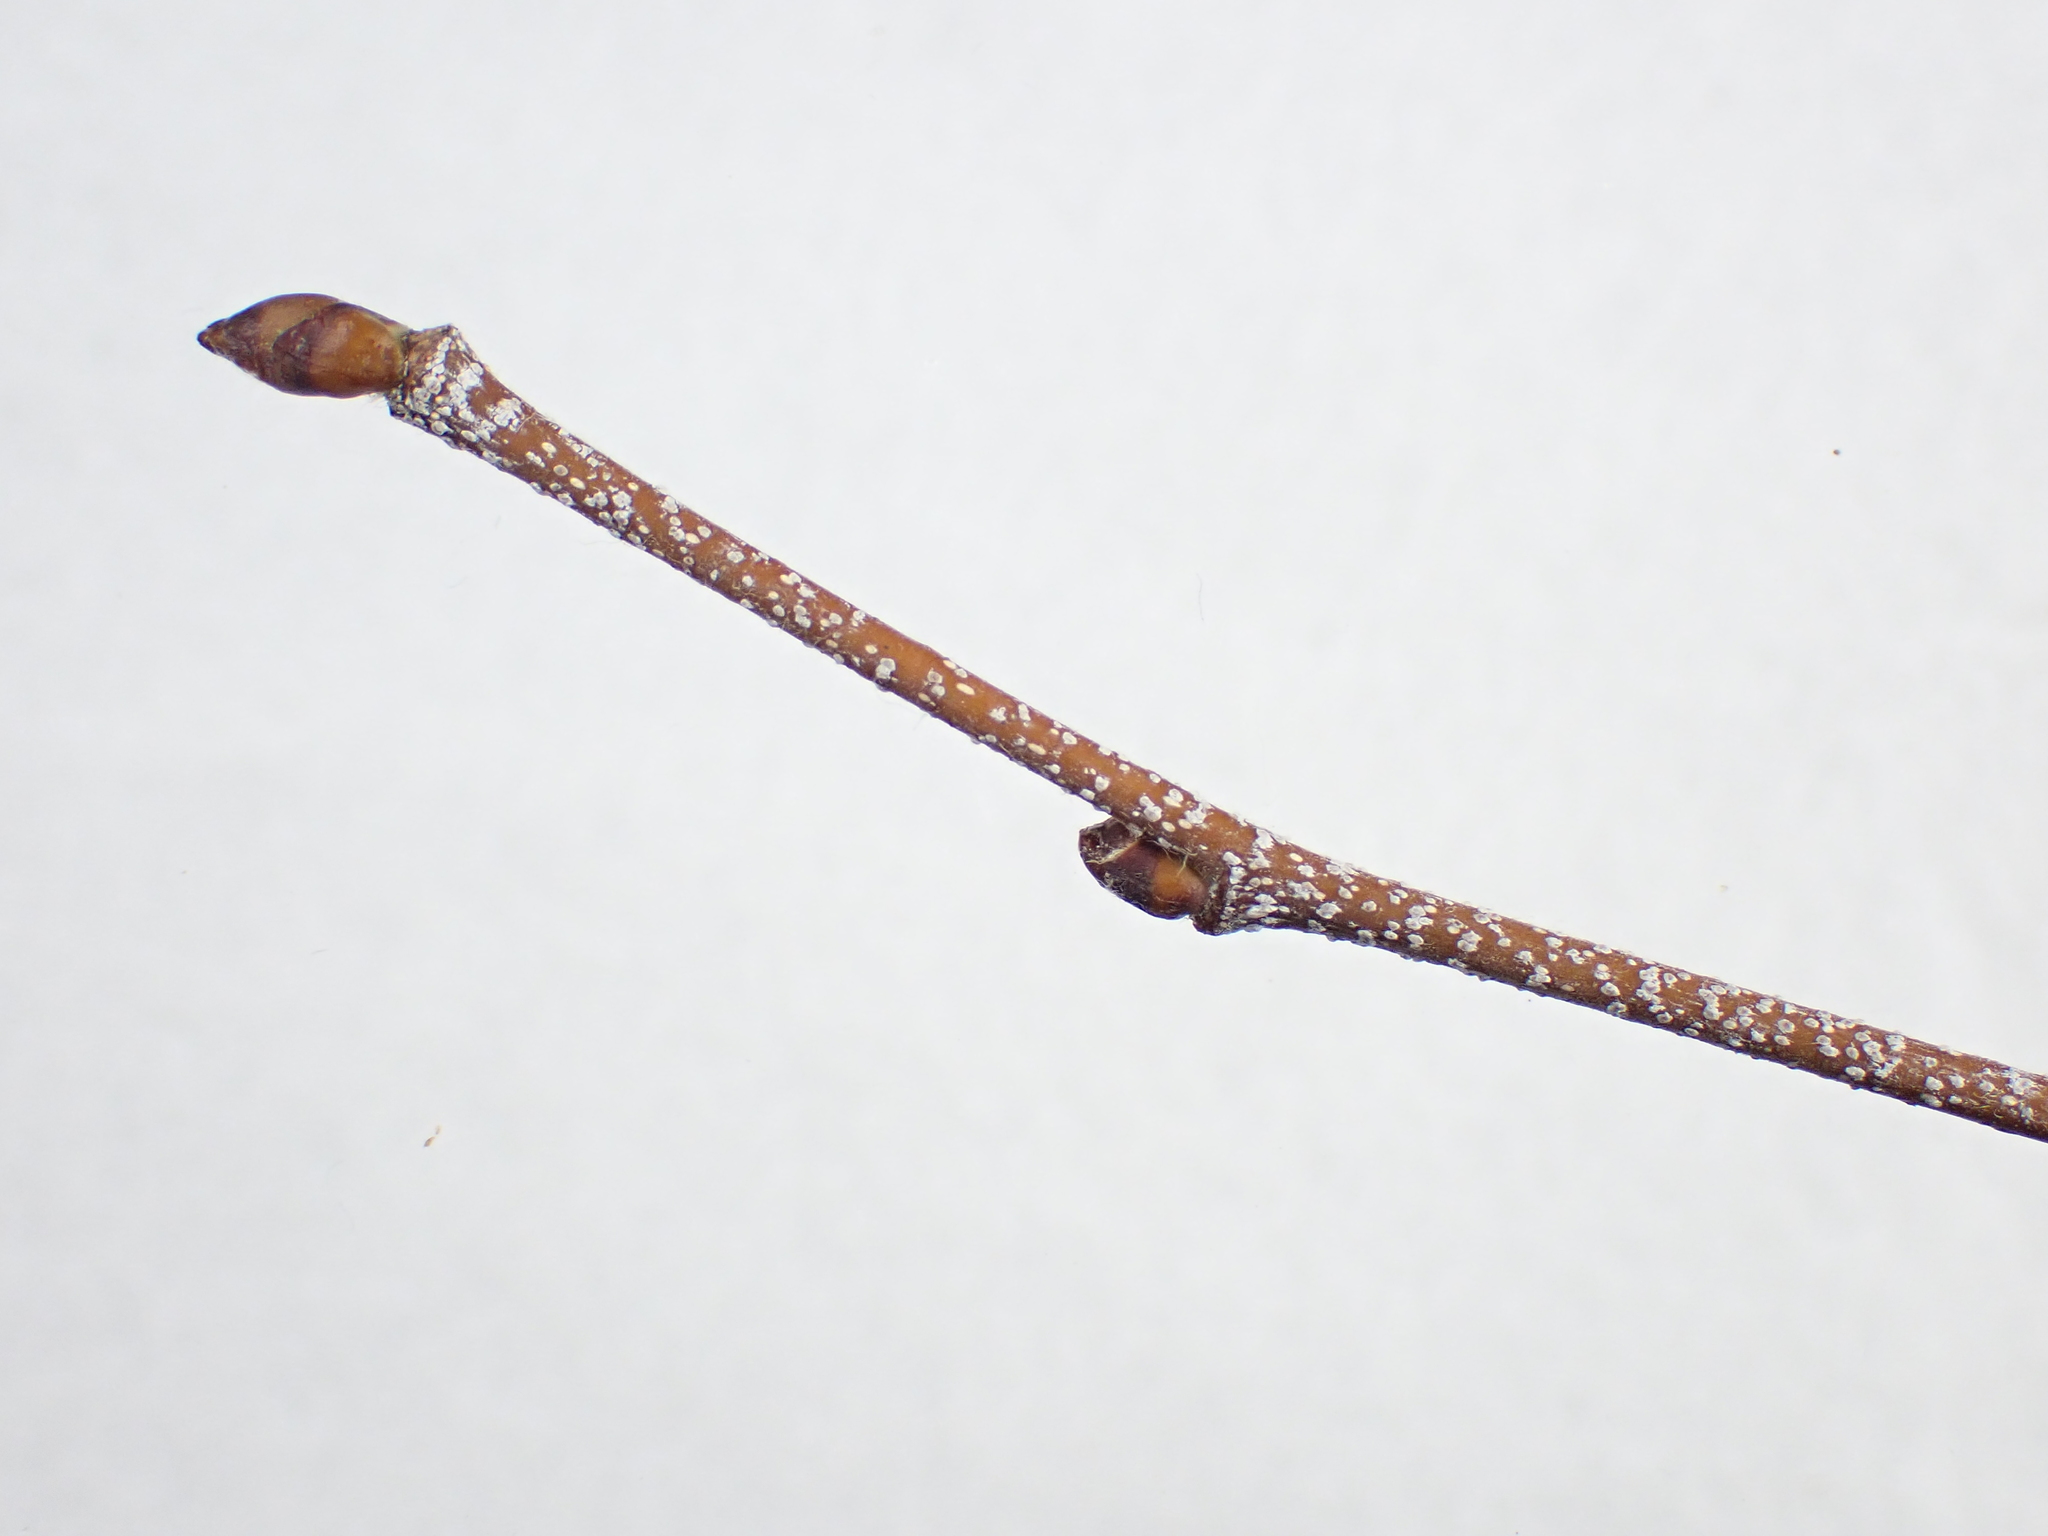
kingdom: Plantae
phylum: Tracheophyta
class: Magnoliopsida
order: Fagales
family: Betulaceae
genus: Betula
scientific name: Betula populifolia
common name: Fire birch
